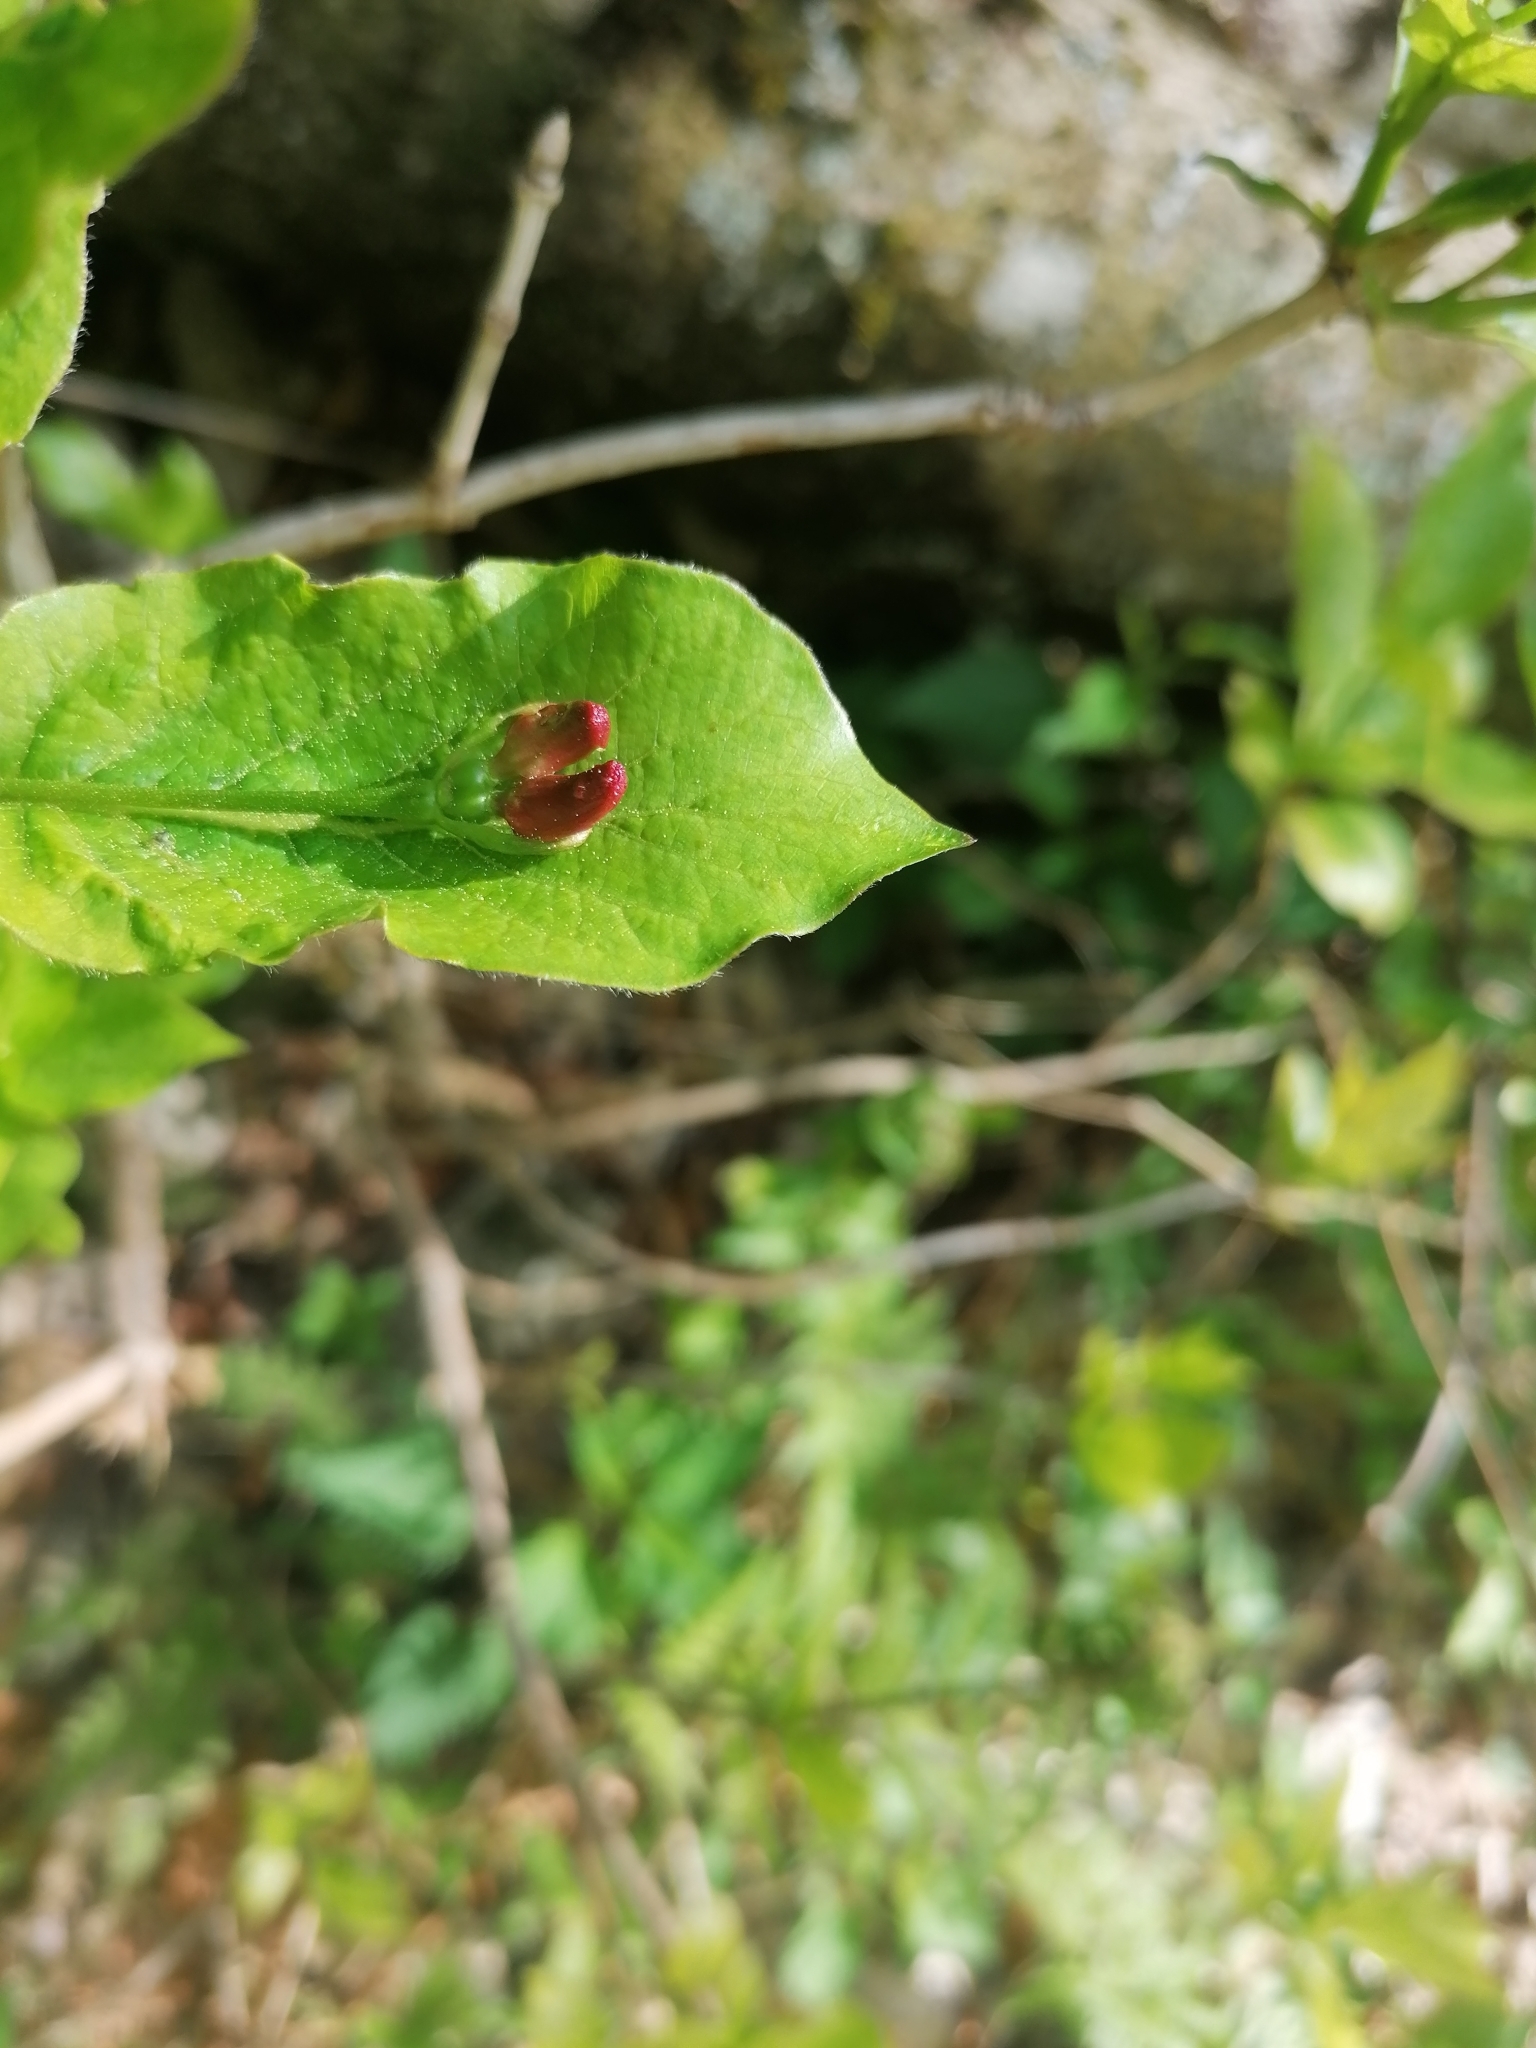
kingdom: Plantae
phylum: Tracheophyta
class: Magnoliopsida
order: Dipsacales
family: Caprifoliaceae
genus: Lonicera
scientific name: Lonicera alpigena
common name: Alpine honeysuckle
